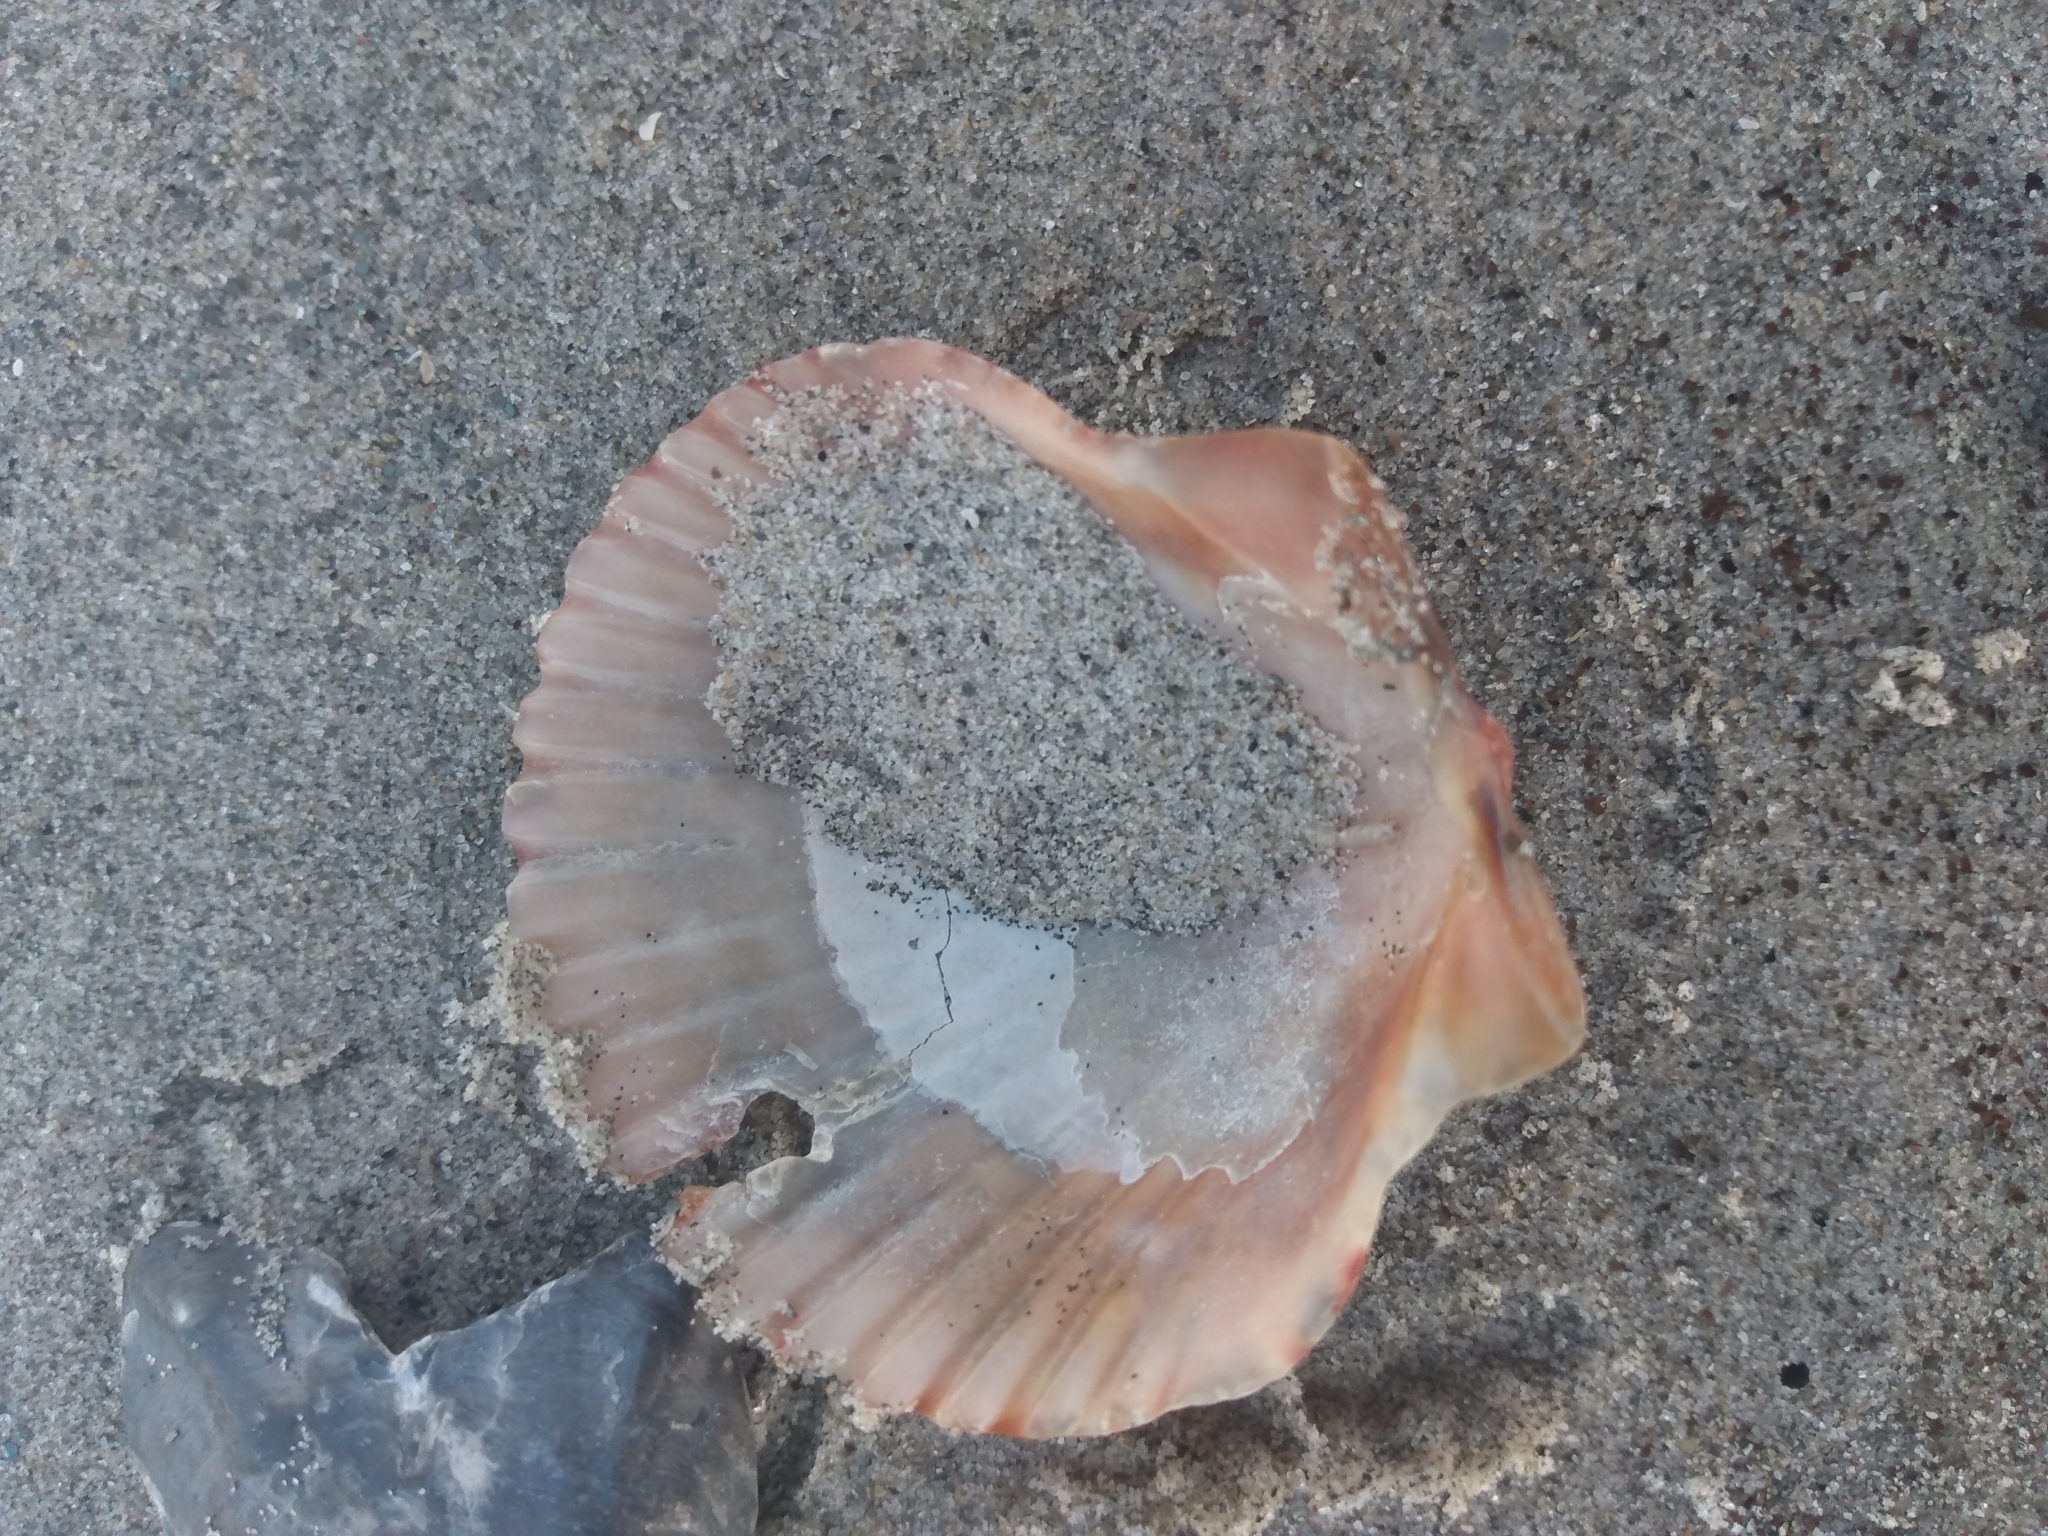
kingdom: Animalia
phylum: Mollusca
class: Bivalvia
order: Pectinida
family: Pectinidae
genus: Argopecten
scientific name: Argopecten ventricosus
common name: Catarina scallop
